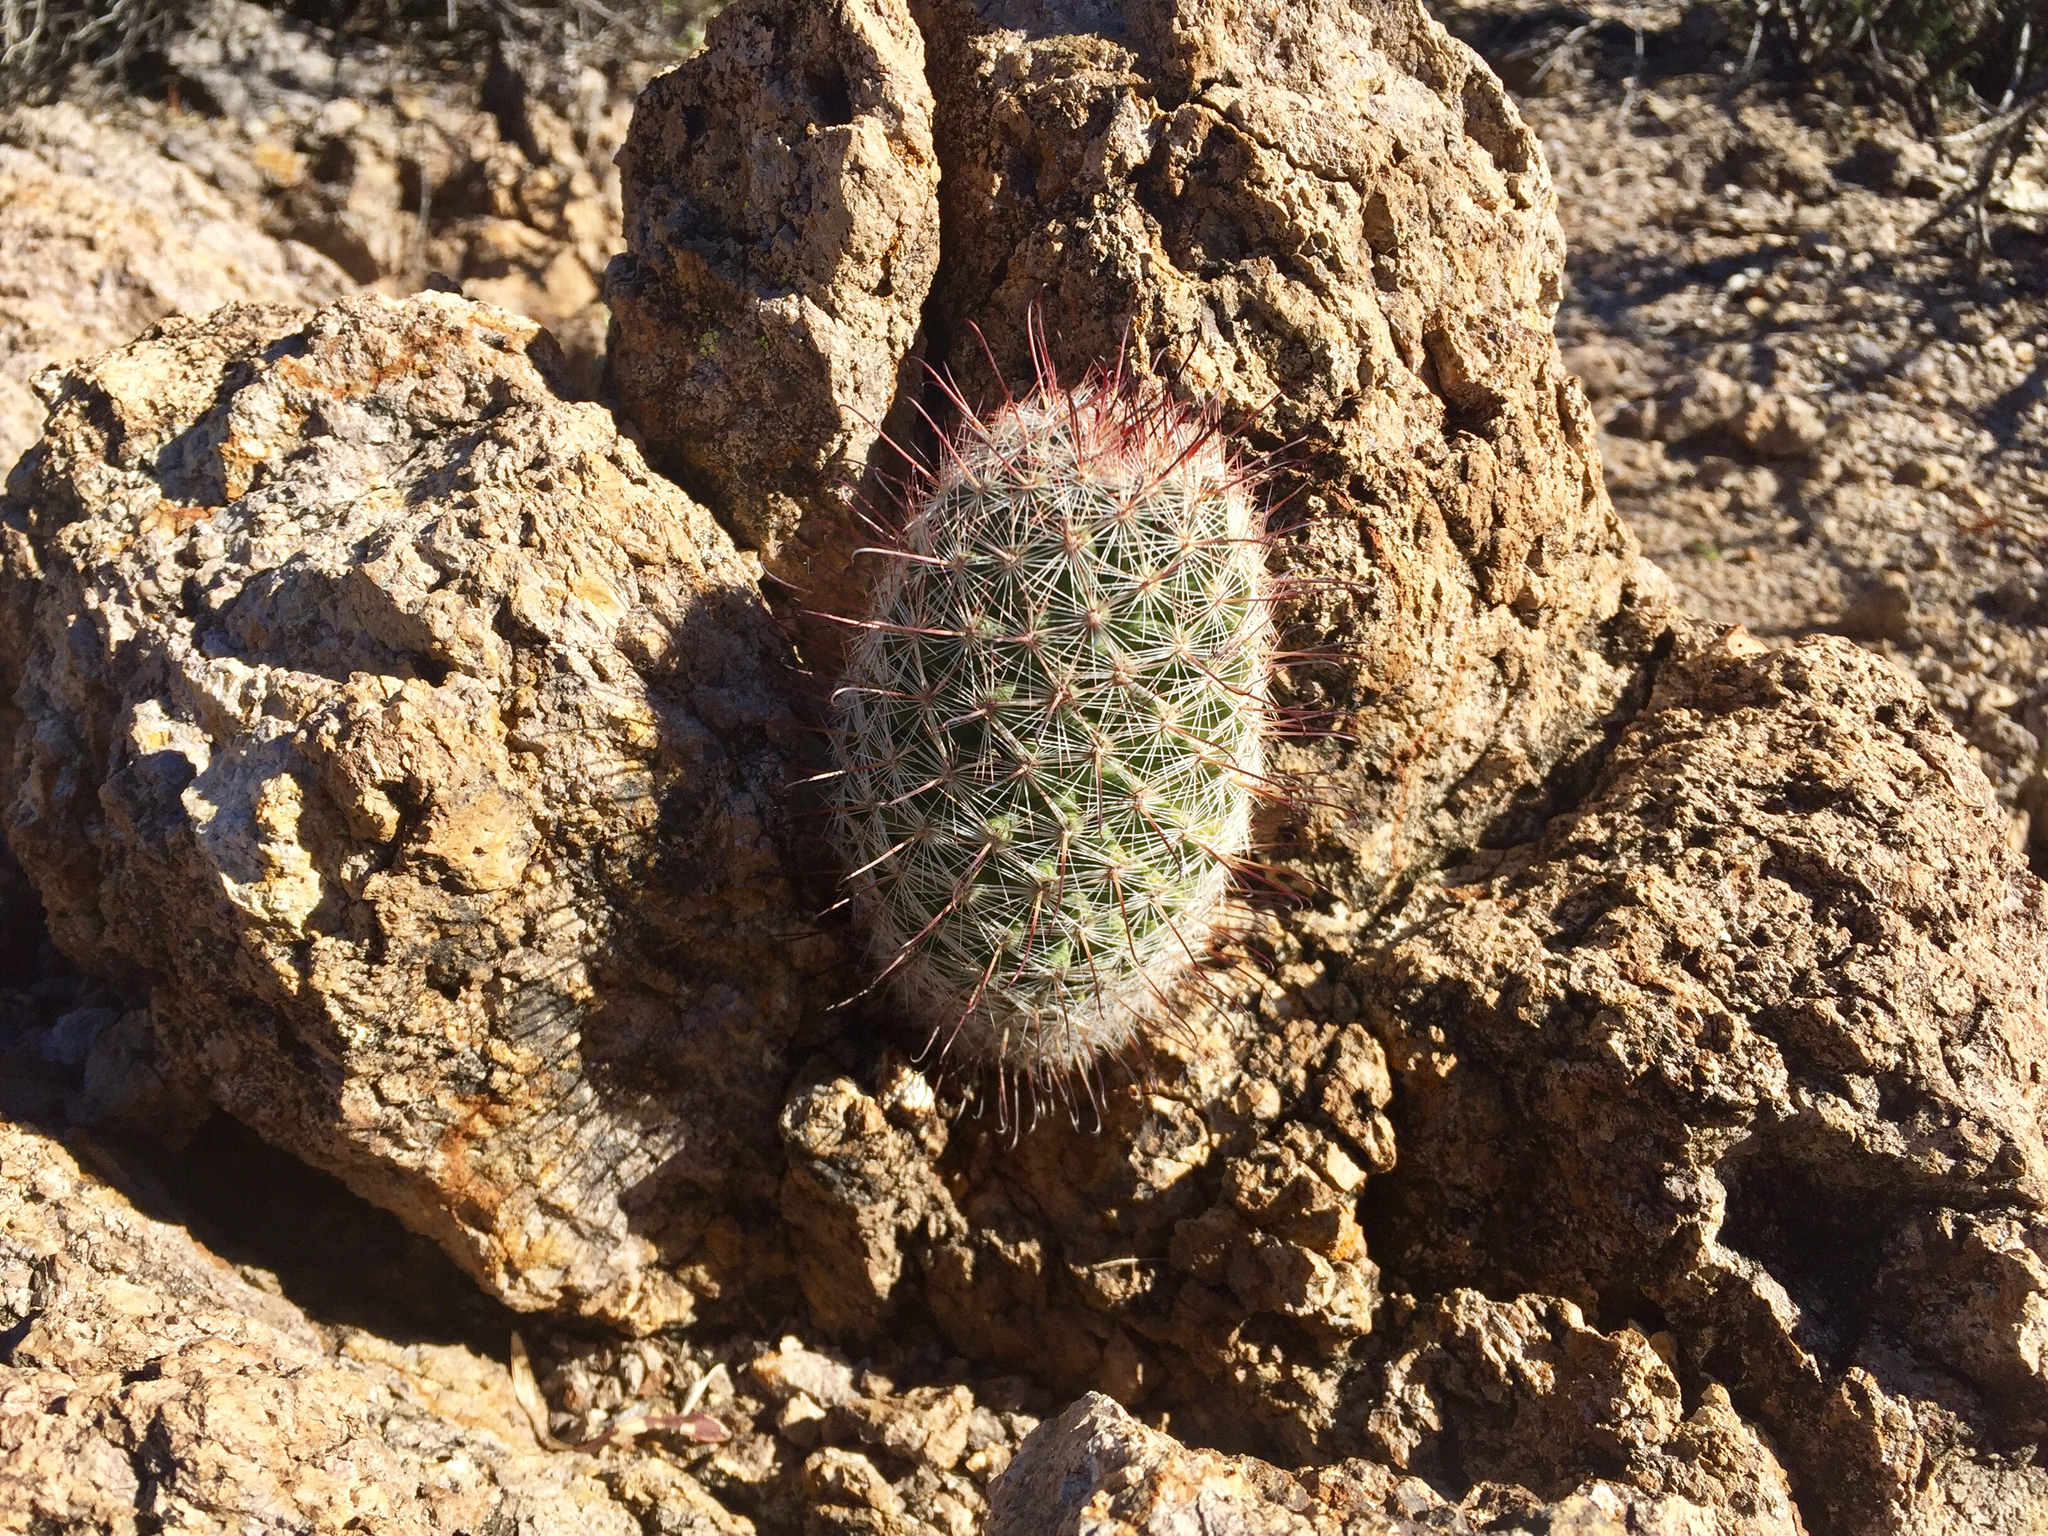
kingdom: Plantae
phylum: Tracheophyta
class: Magnoliopsida
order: Caryophyllales
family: Cactaceae
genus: Cochemiea
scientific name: Cochemiea grahamii
